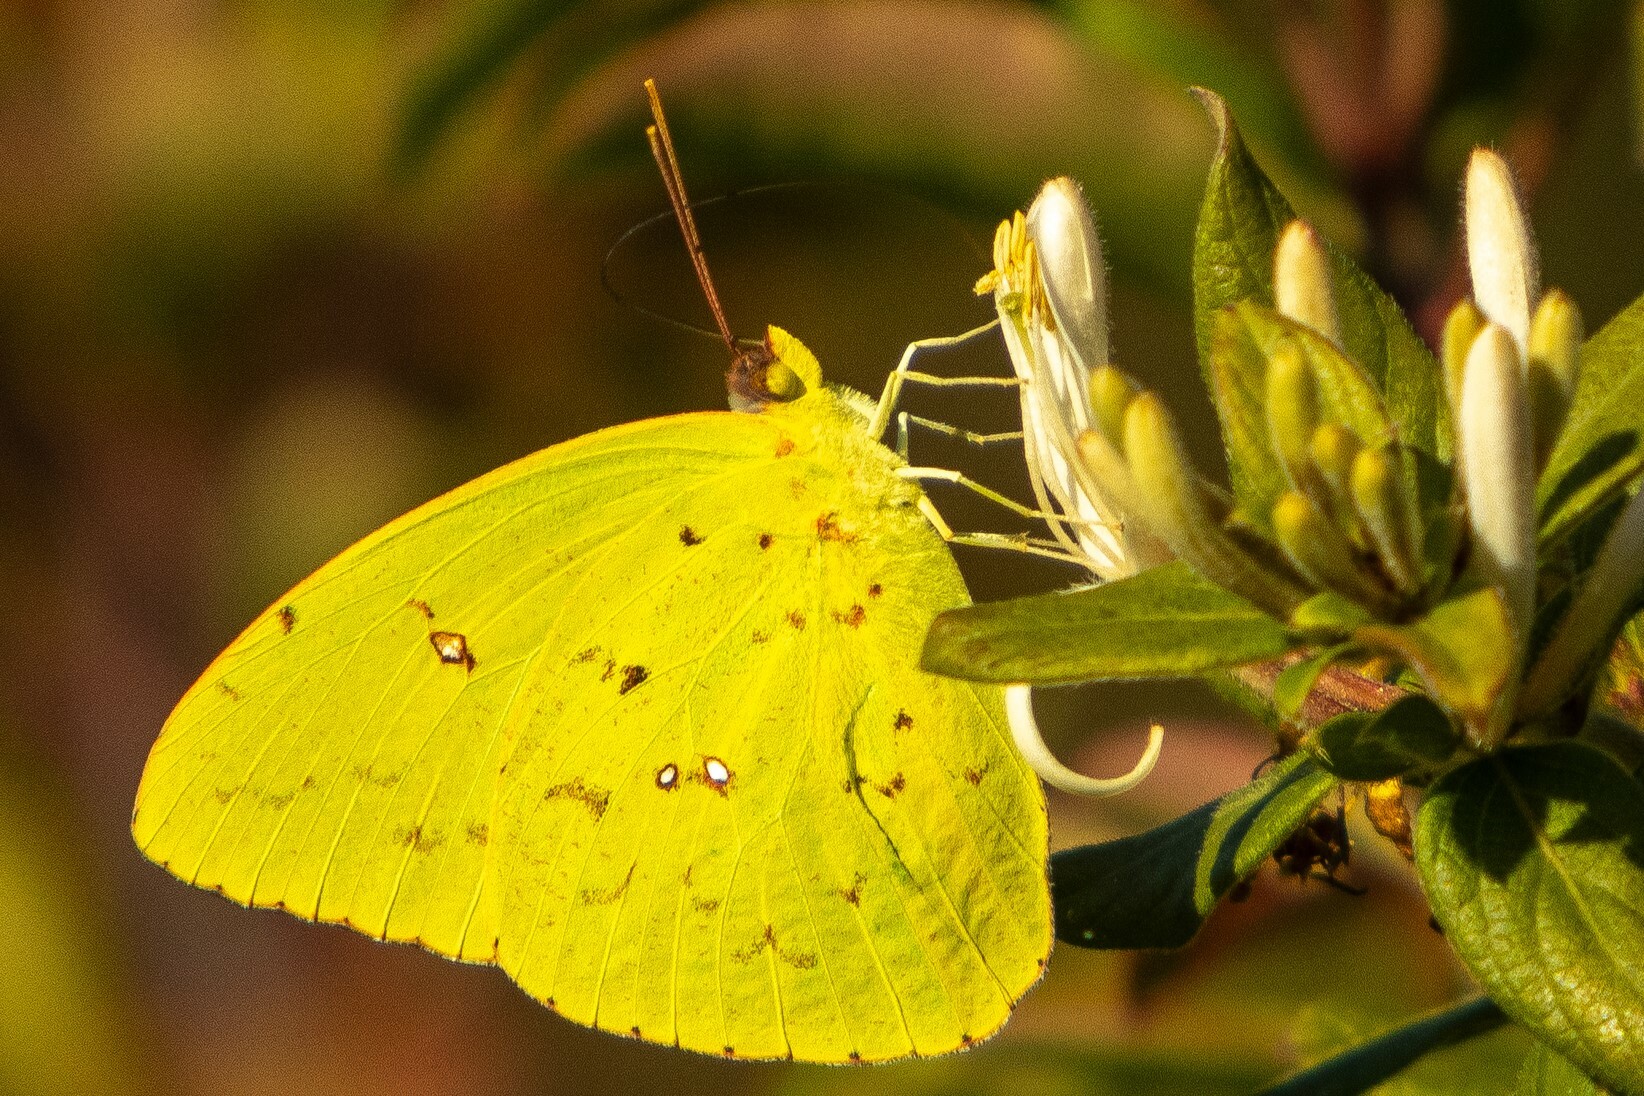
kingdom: Animalia
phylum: Arthropoda
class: Insecta
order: Lepidoptera
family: Pieridae
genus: Phoebis
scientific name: Phoebis sennae
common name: Cloudless sulphur
